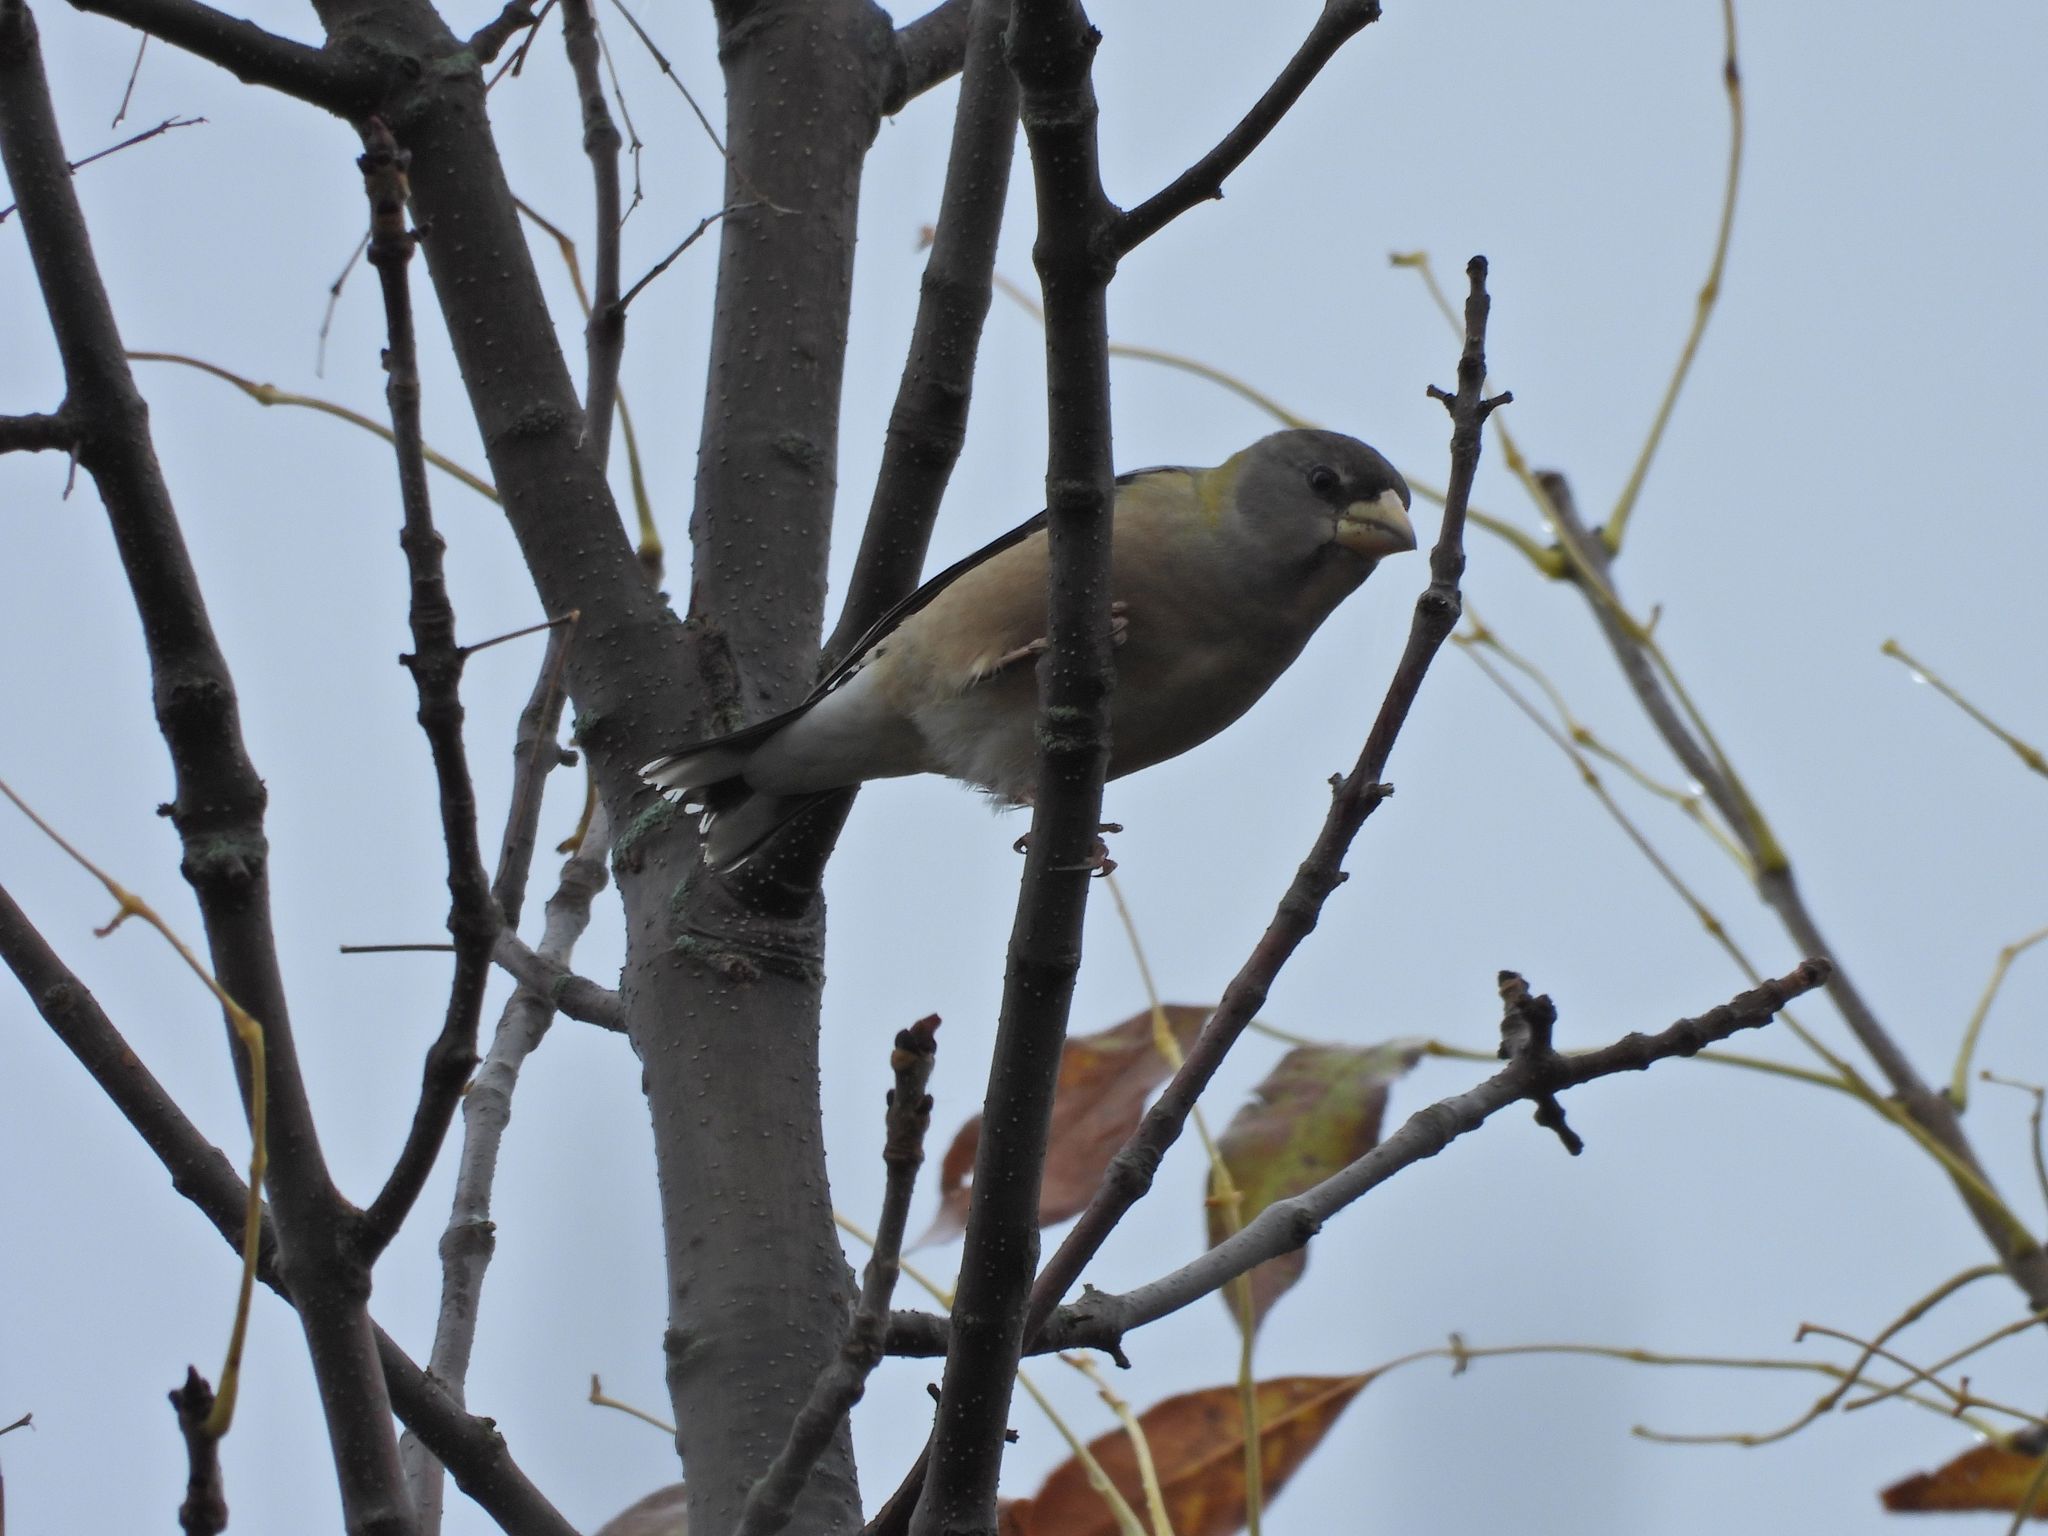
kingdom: Animalia
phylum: Chordata
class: Aves
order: Passeriformes
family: Fringillidae
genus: Hesperiphona
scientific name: Hesperiphona vespertina
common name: Evening grosbeak
